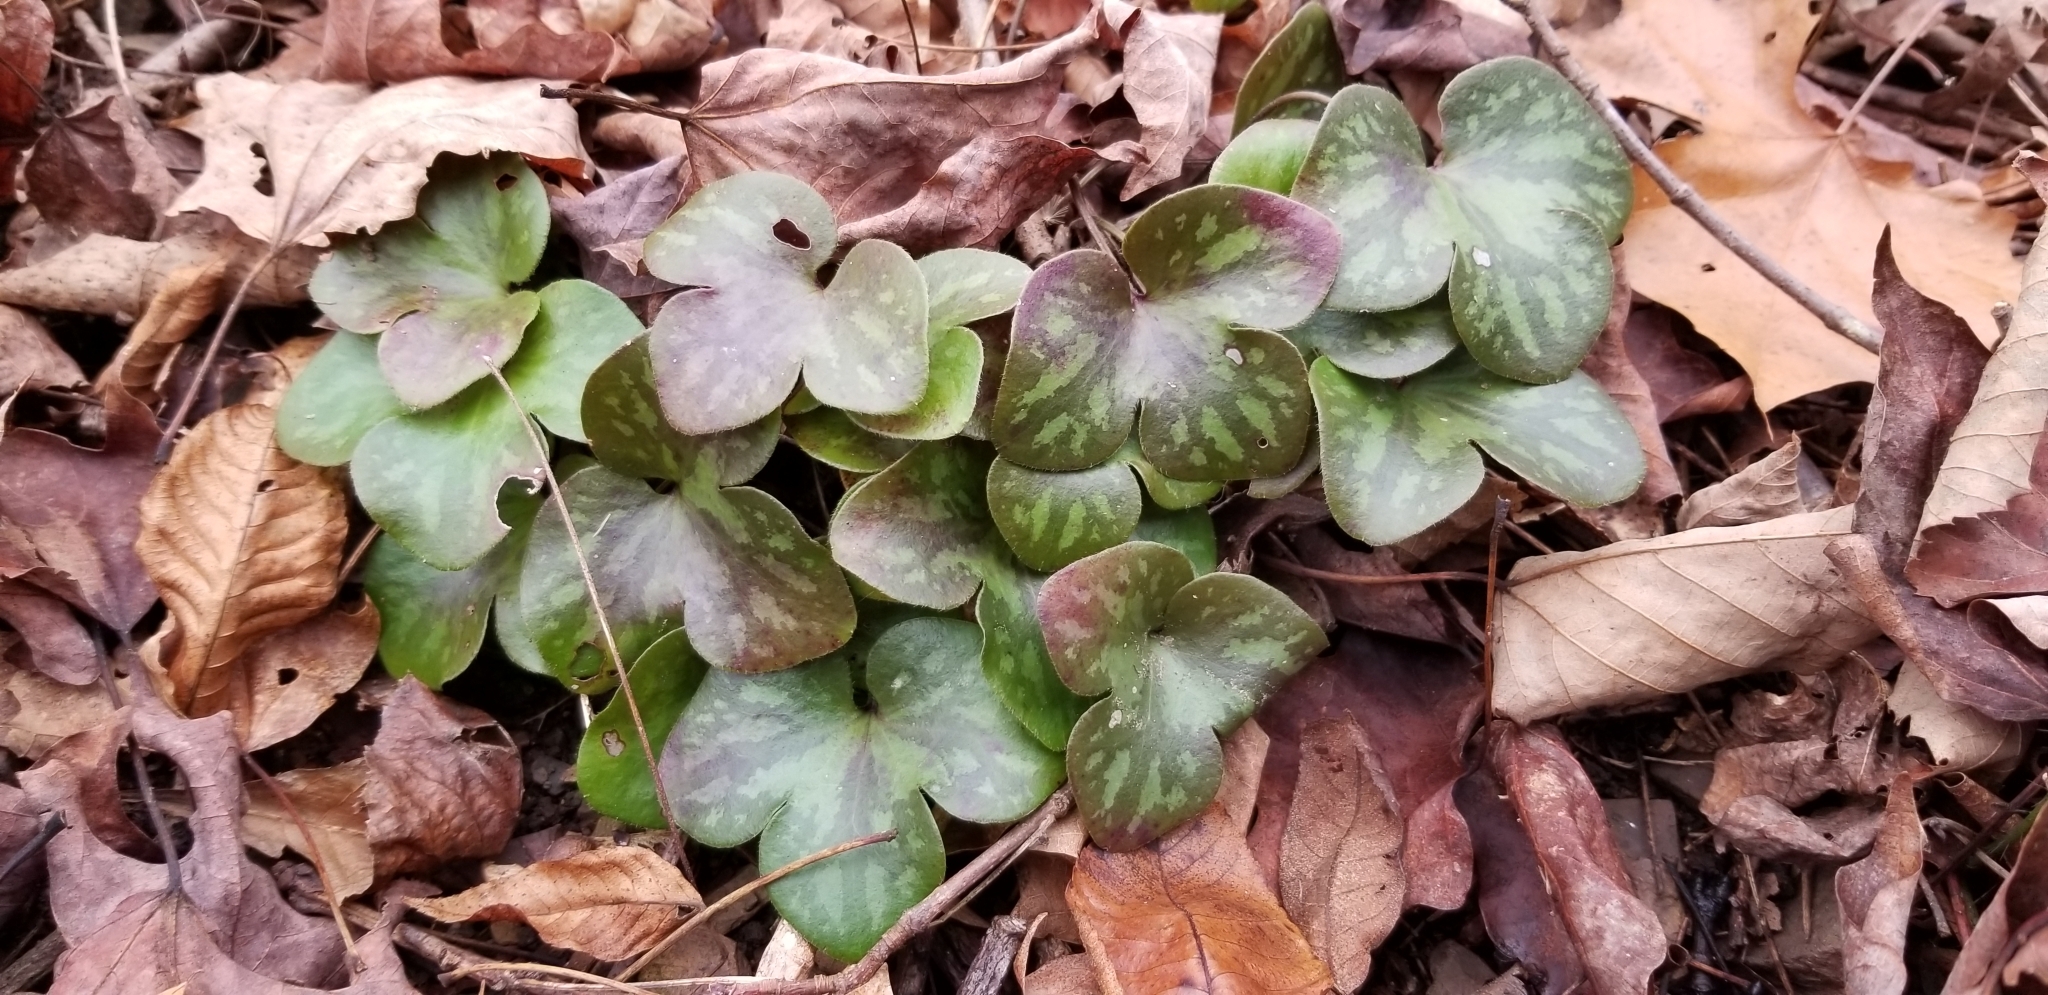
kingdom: Plantae
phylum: Tracheophyta
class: Magnoliopsida
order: Ranunculales
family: Ranunculaceae
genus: Hepatica
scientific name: Hepatica americana
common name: American hepatica
